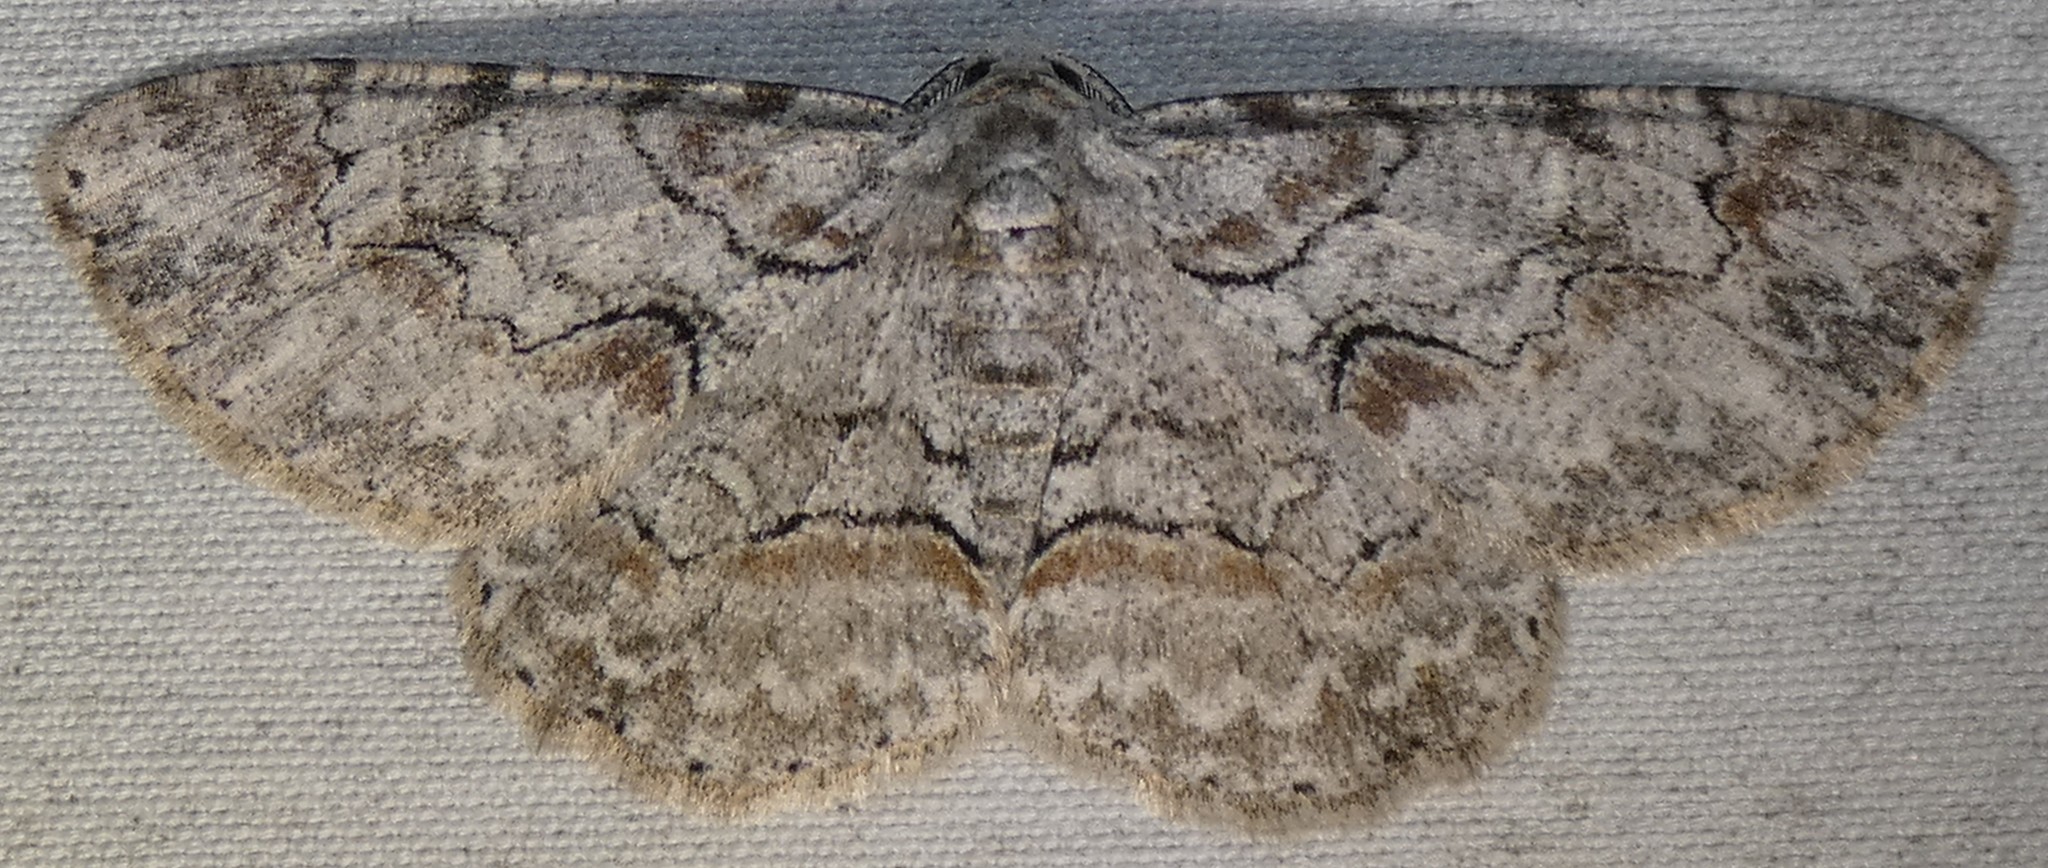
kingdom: Animalia
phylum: Arthropoda
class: Insecta
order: Lepidoptera
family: Geometridae
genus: Iridopsis
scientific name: Iridopsis defectaria
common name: Brown-shaded gray
